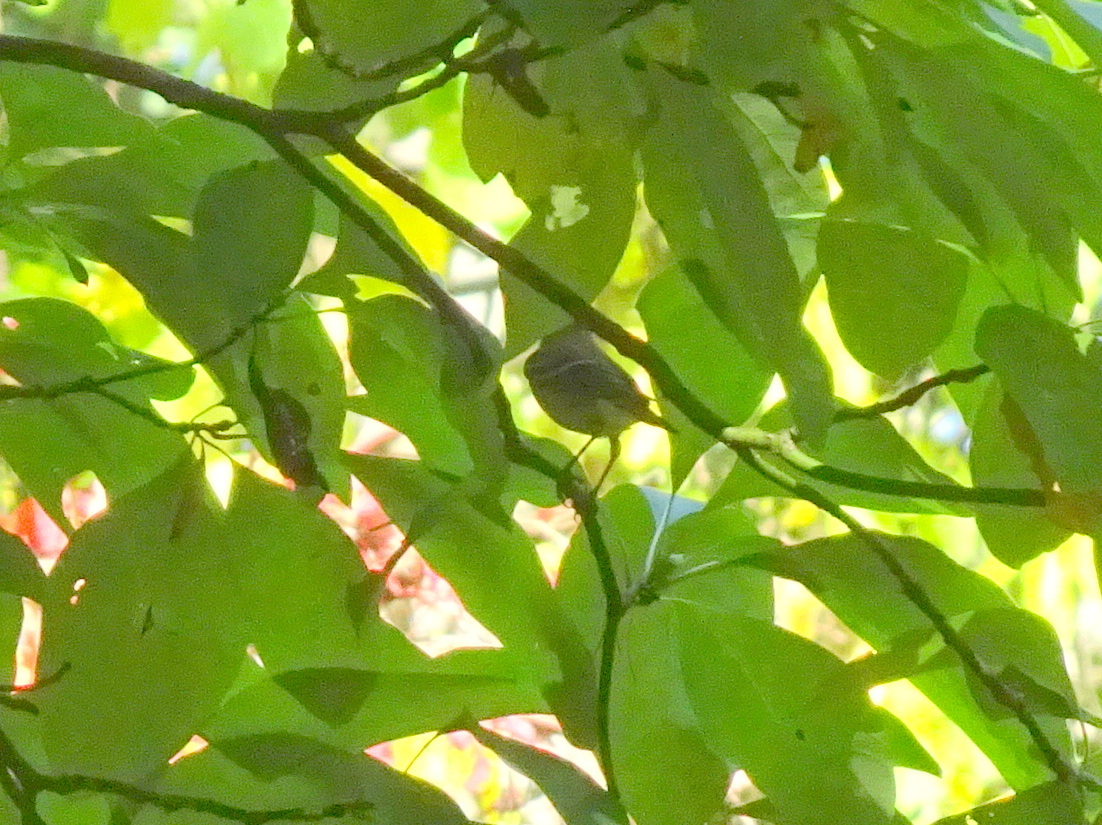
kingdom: Animalia
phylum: Chordata
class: Aves
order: Passeriformes
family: Parulidae
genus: Setophaga
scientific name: Setophaga striata
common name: Blackpoll warbler
